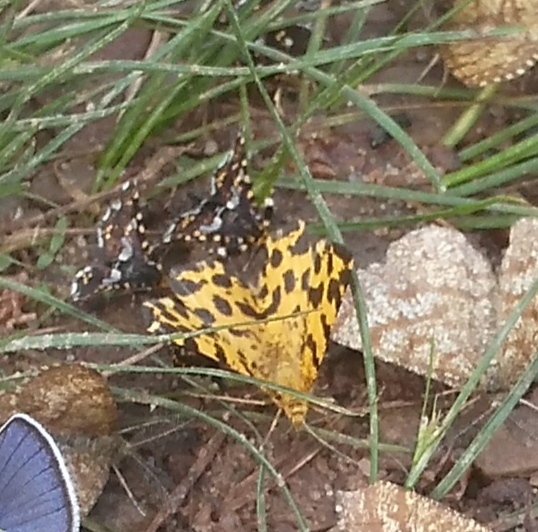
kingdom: Animalia
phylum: Arthropoda
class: Insecta
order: Lepidoptera
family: Geometridae
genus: Pseudopanthera
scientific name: Pseudopanthera macularia
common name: Speckled yellow
